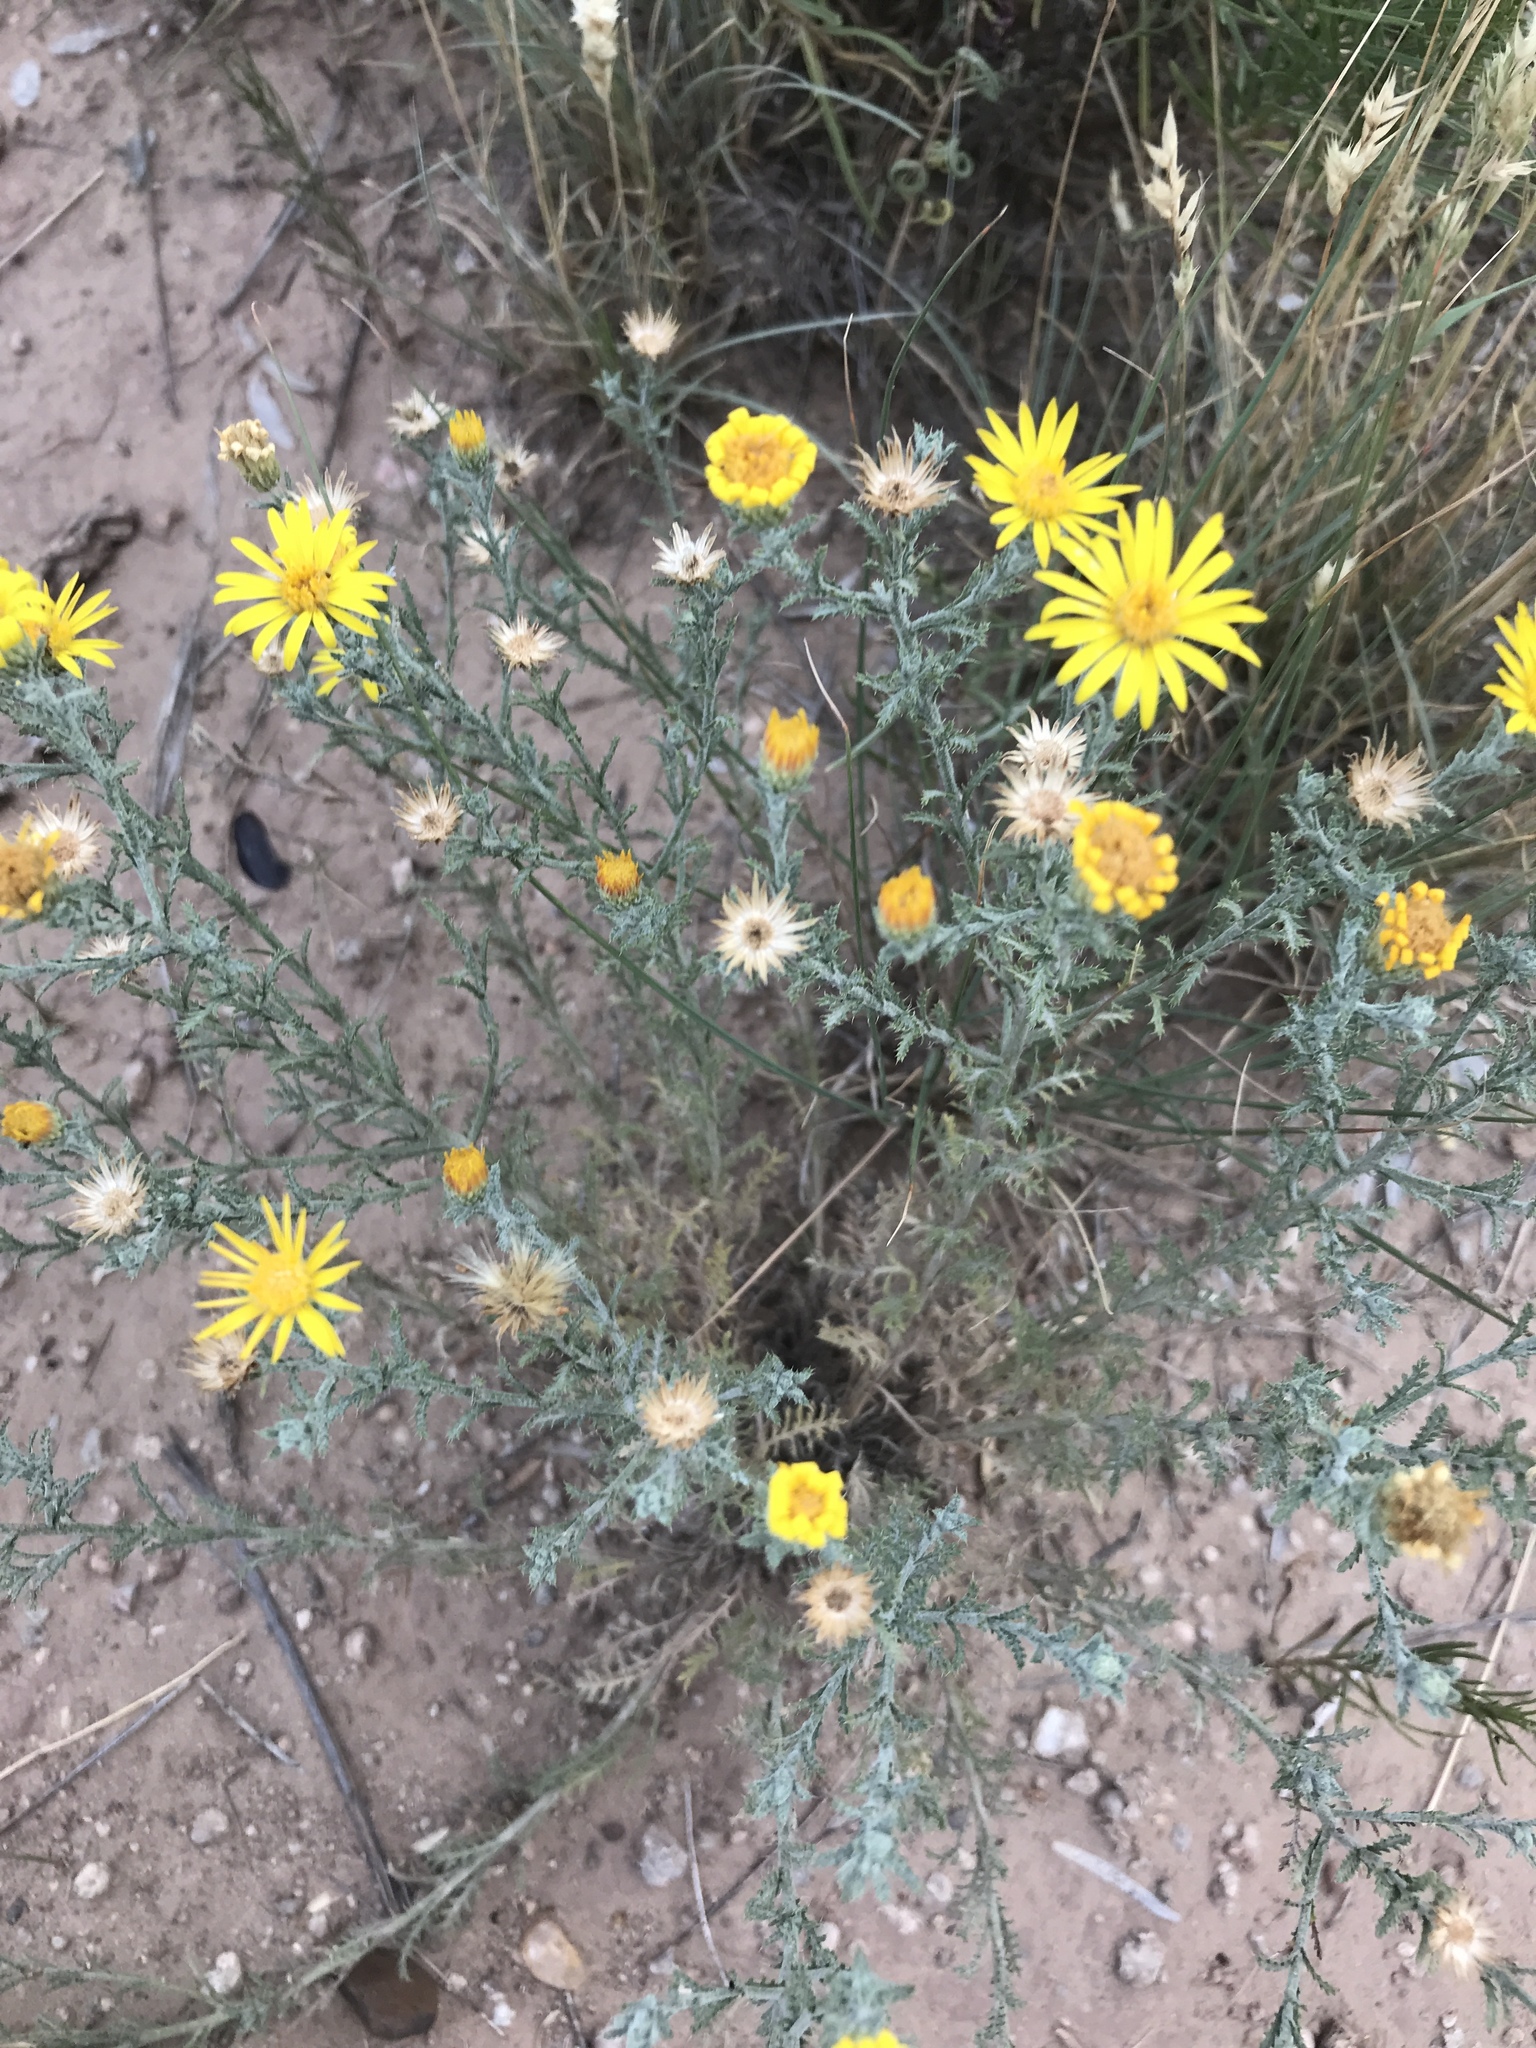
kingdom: Plantae
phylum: Tracheophyta
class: Magnoliopsida
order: Asterales
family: Asteraceae
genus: Xanthisma
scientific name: Xanthisma spinulosum
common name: Spiny goldenweed
